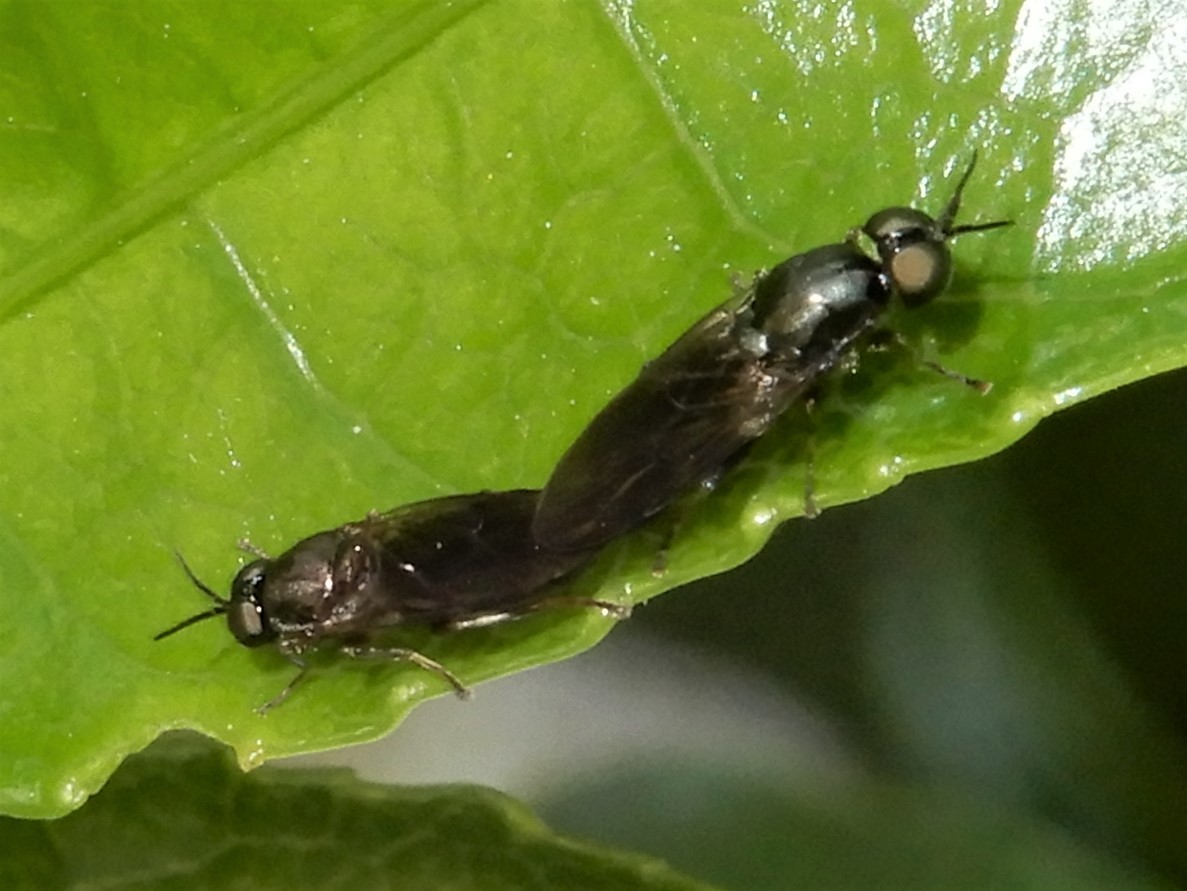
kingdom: Animalia
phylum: Arthropoda
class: Insecta
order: Diptera
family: Stratiomyidae
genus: Zealandoberis
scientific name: Zealandoberis violacea
